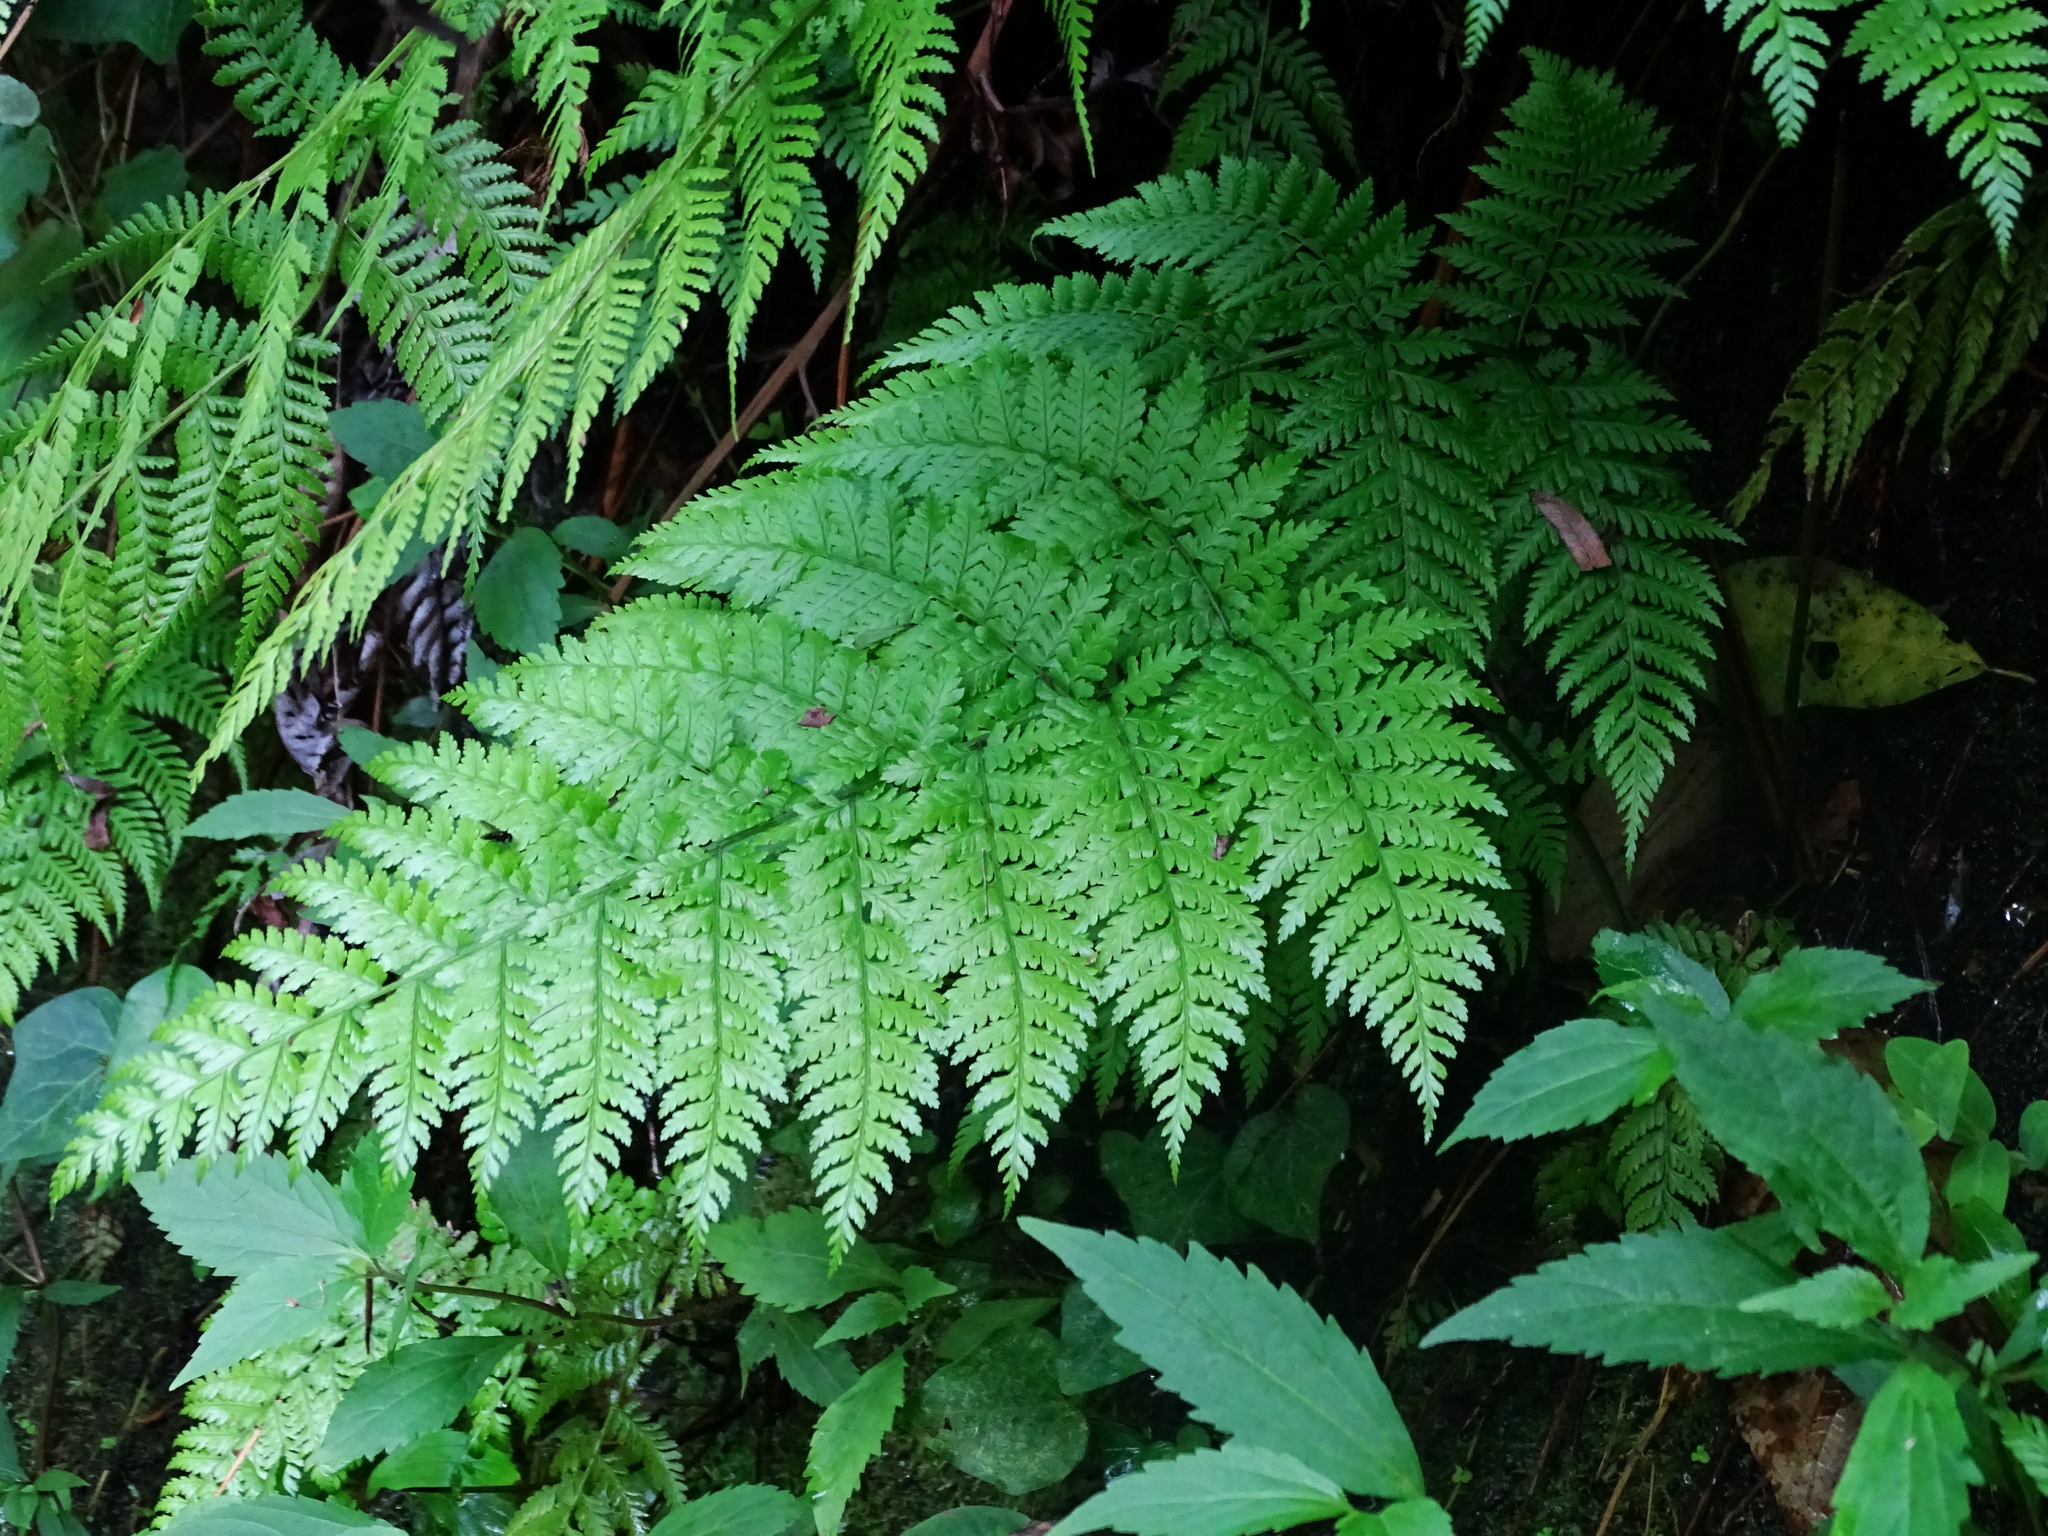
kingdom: Plantae
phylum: Tracheophyta
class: Polypodiopsida
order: Polypodiales
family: Athyriaceae
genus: Diplazium
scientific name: Diplazium caudatum
